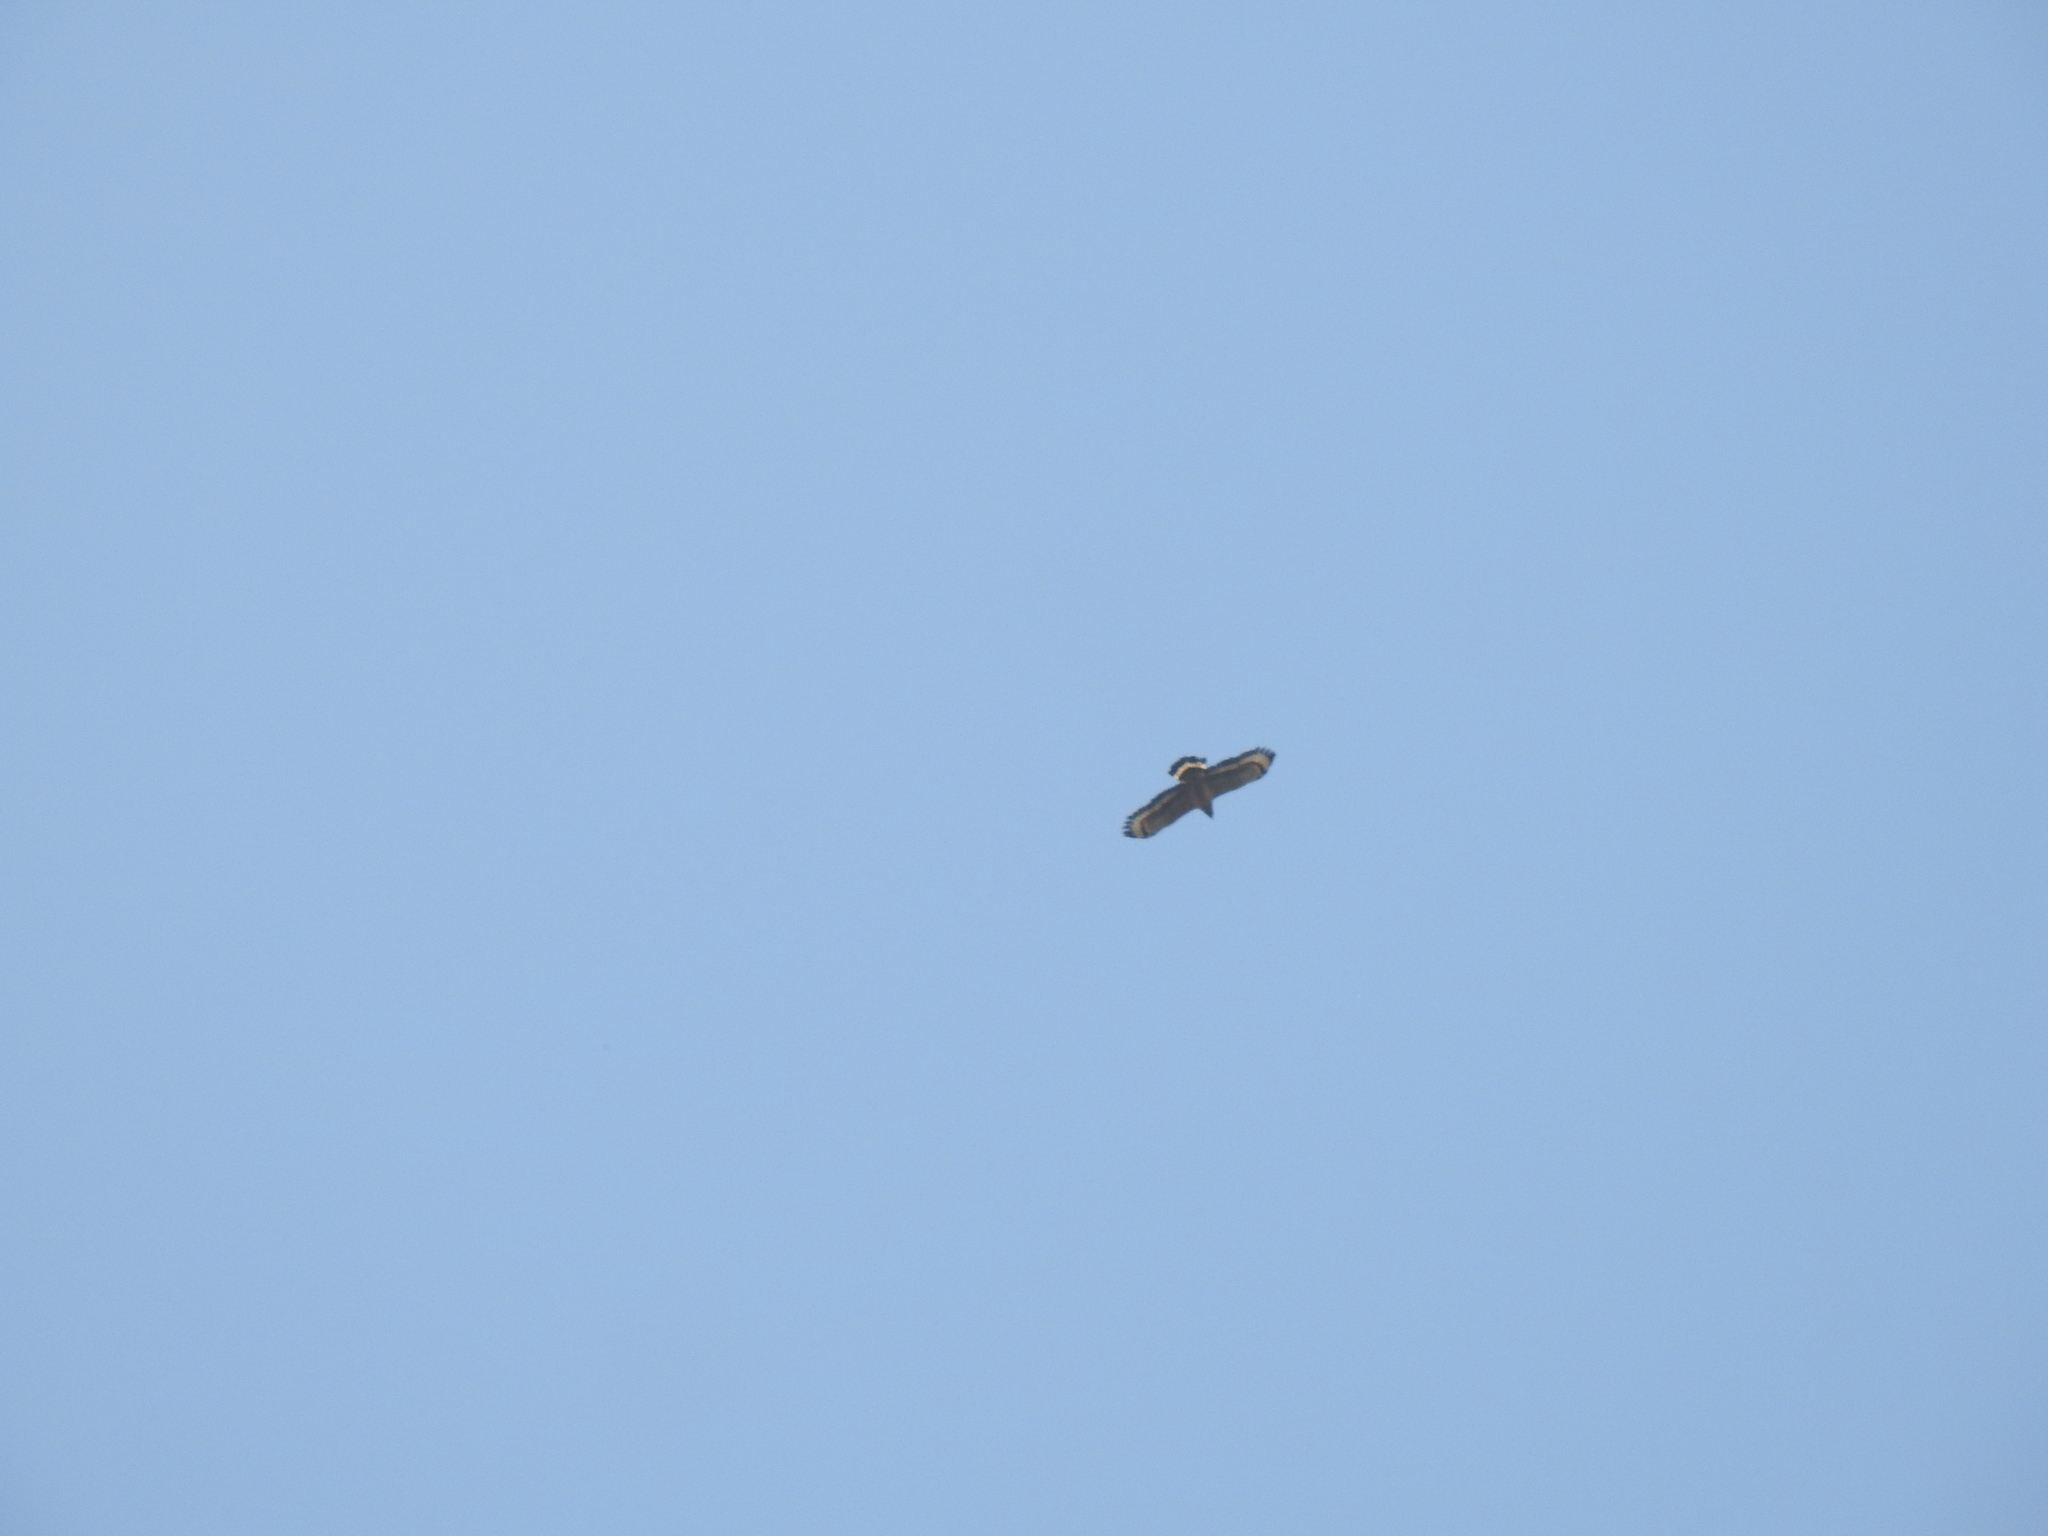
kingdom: Animalia
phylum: Chordata
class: Aves
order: Accipitriformes
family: Accipitridae
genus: Spilornis
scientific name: Spilornis cheela
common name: Crested serpent eagle
